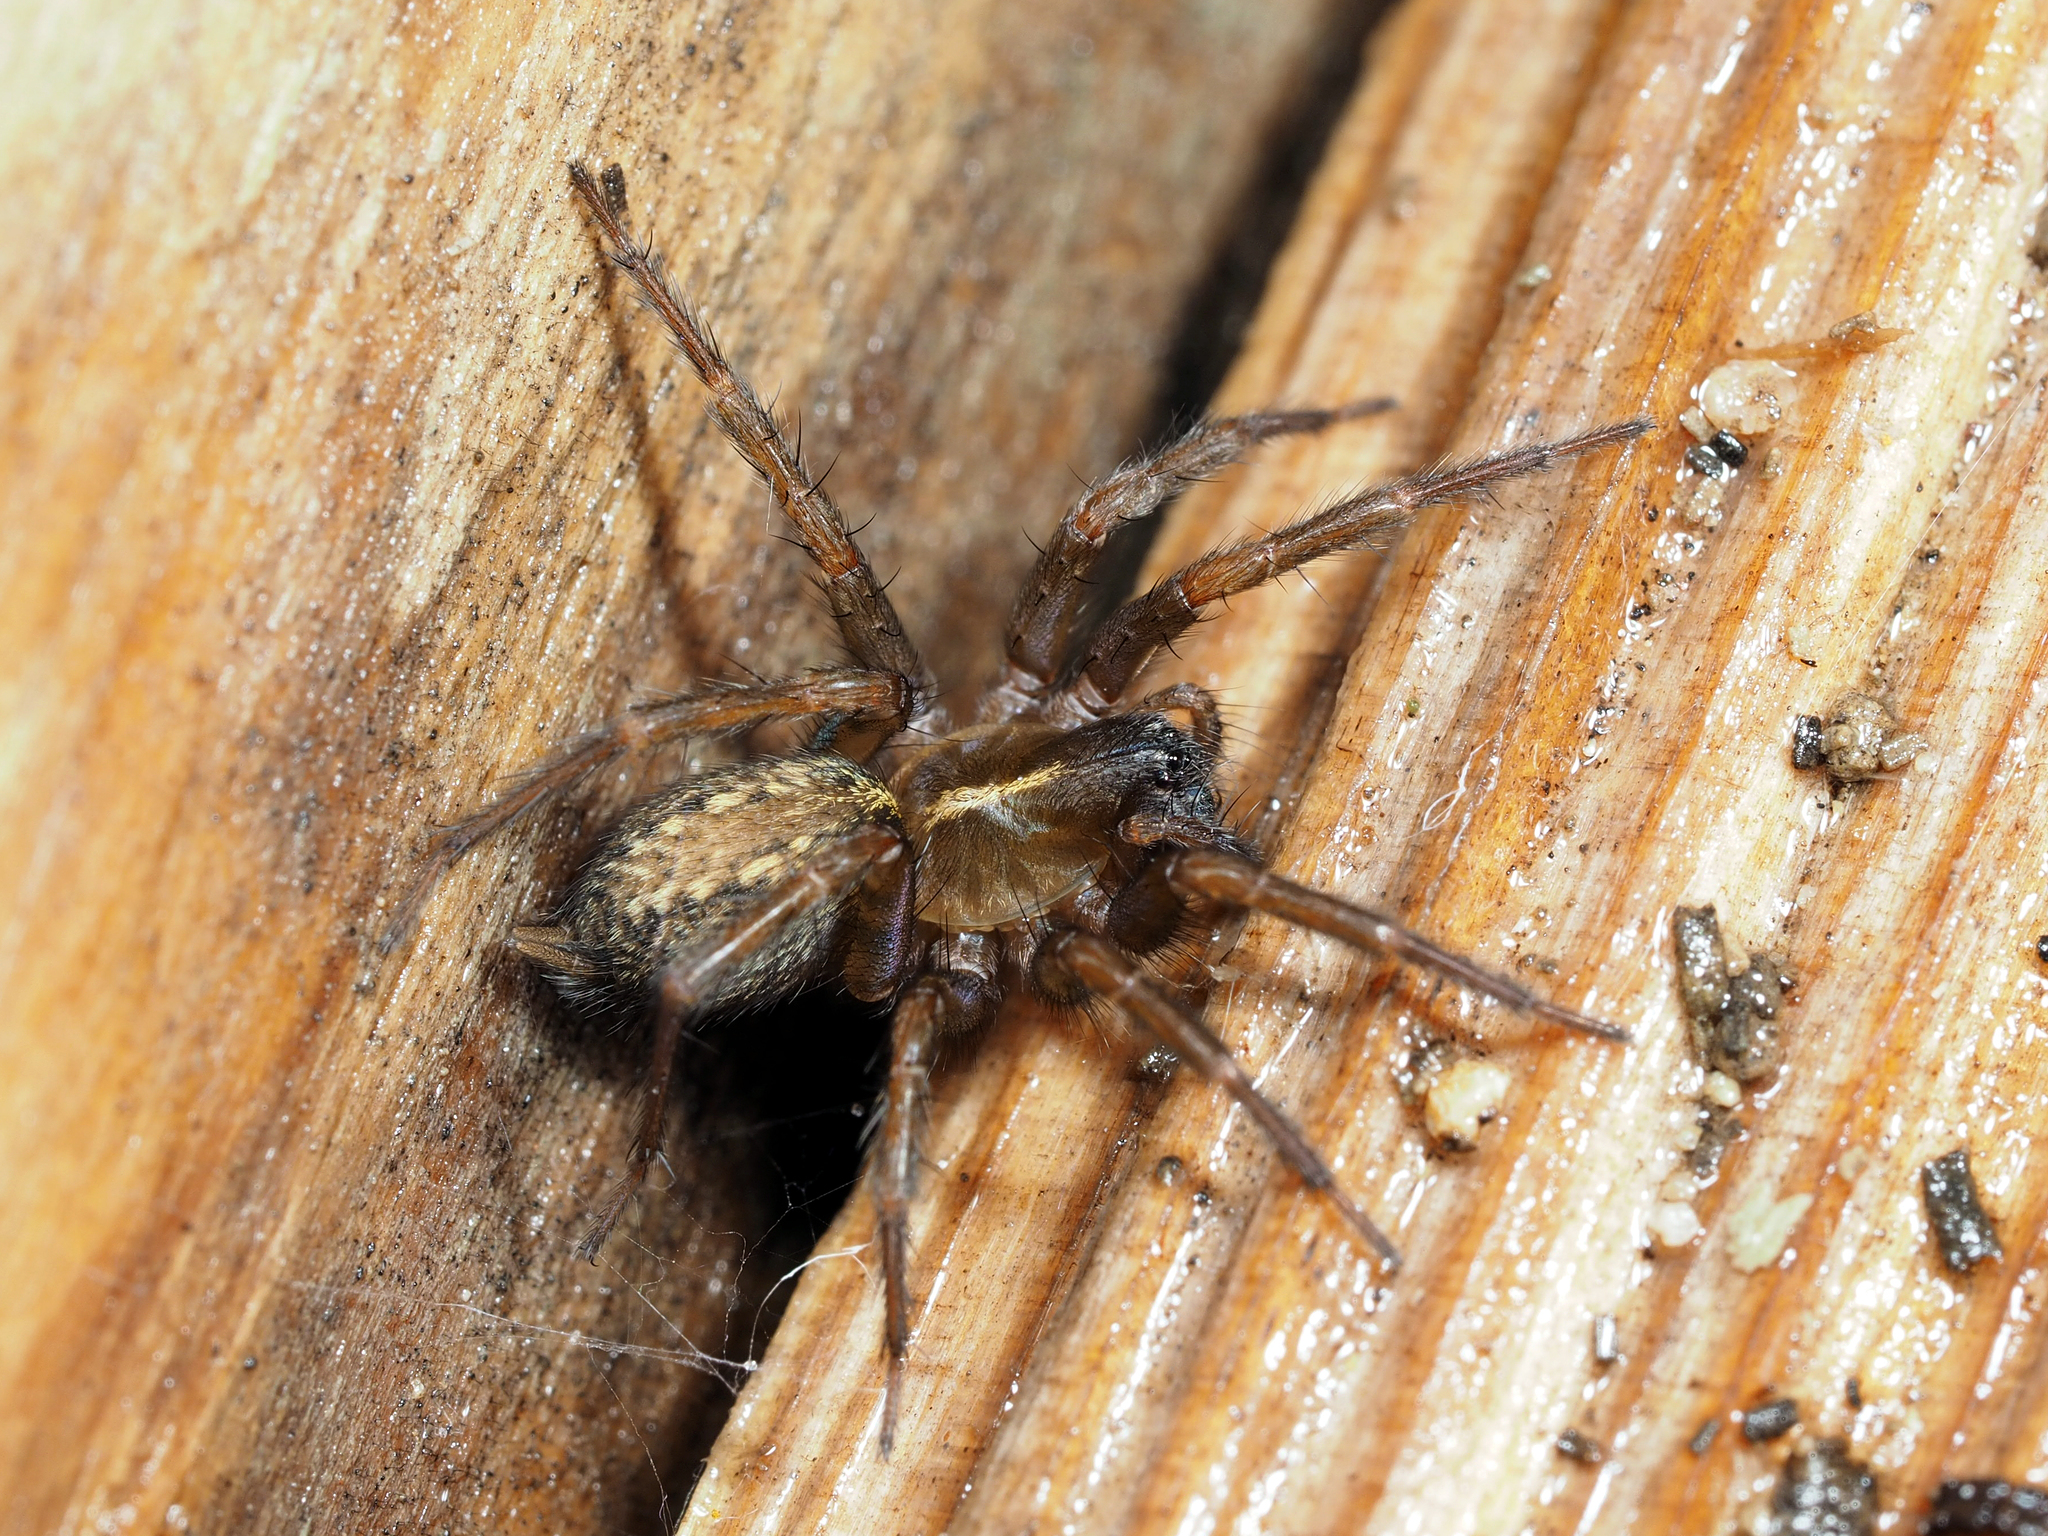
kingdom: Animalia
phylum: Arthropoda
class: Arachnida
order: Araneae
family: Agelenidae
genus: Lycosoides
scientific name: Lycosoides coarctata
